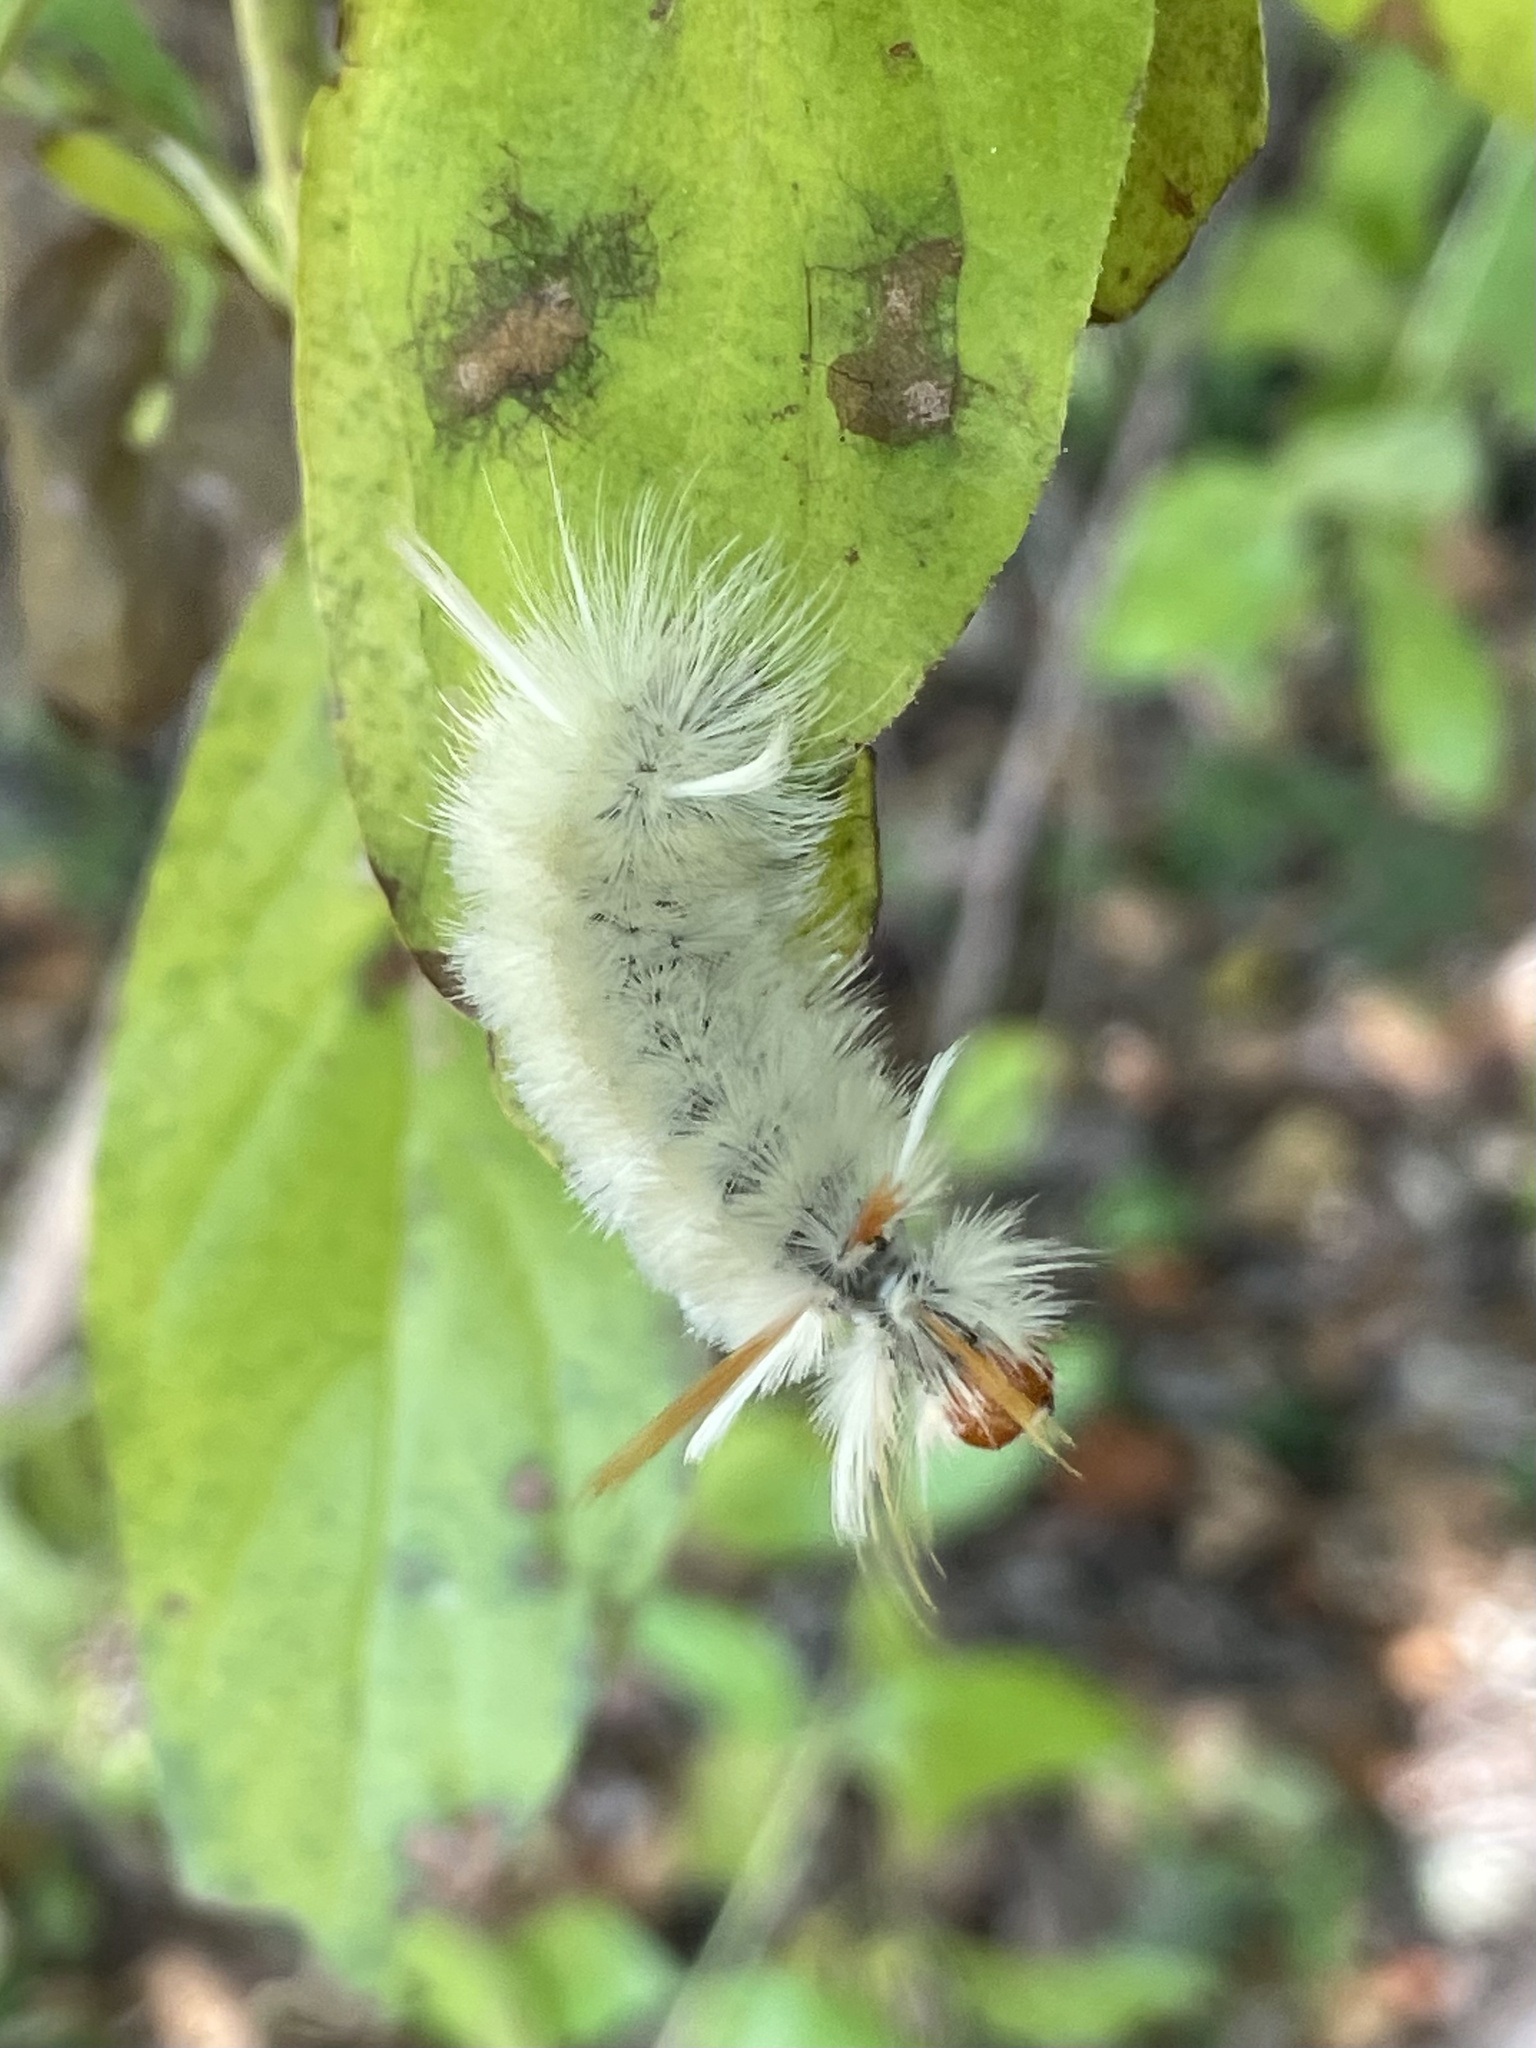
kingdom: Animalia
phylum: Arthropoda
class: Insecta
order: Lepidoptera
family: Erebidae
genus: Halysidota
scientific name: Halysidota harrisii
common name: Sycamore tussock moth
